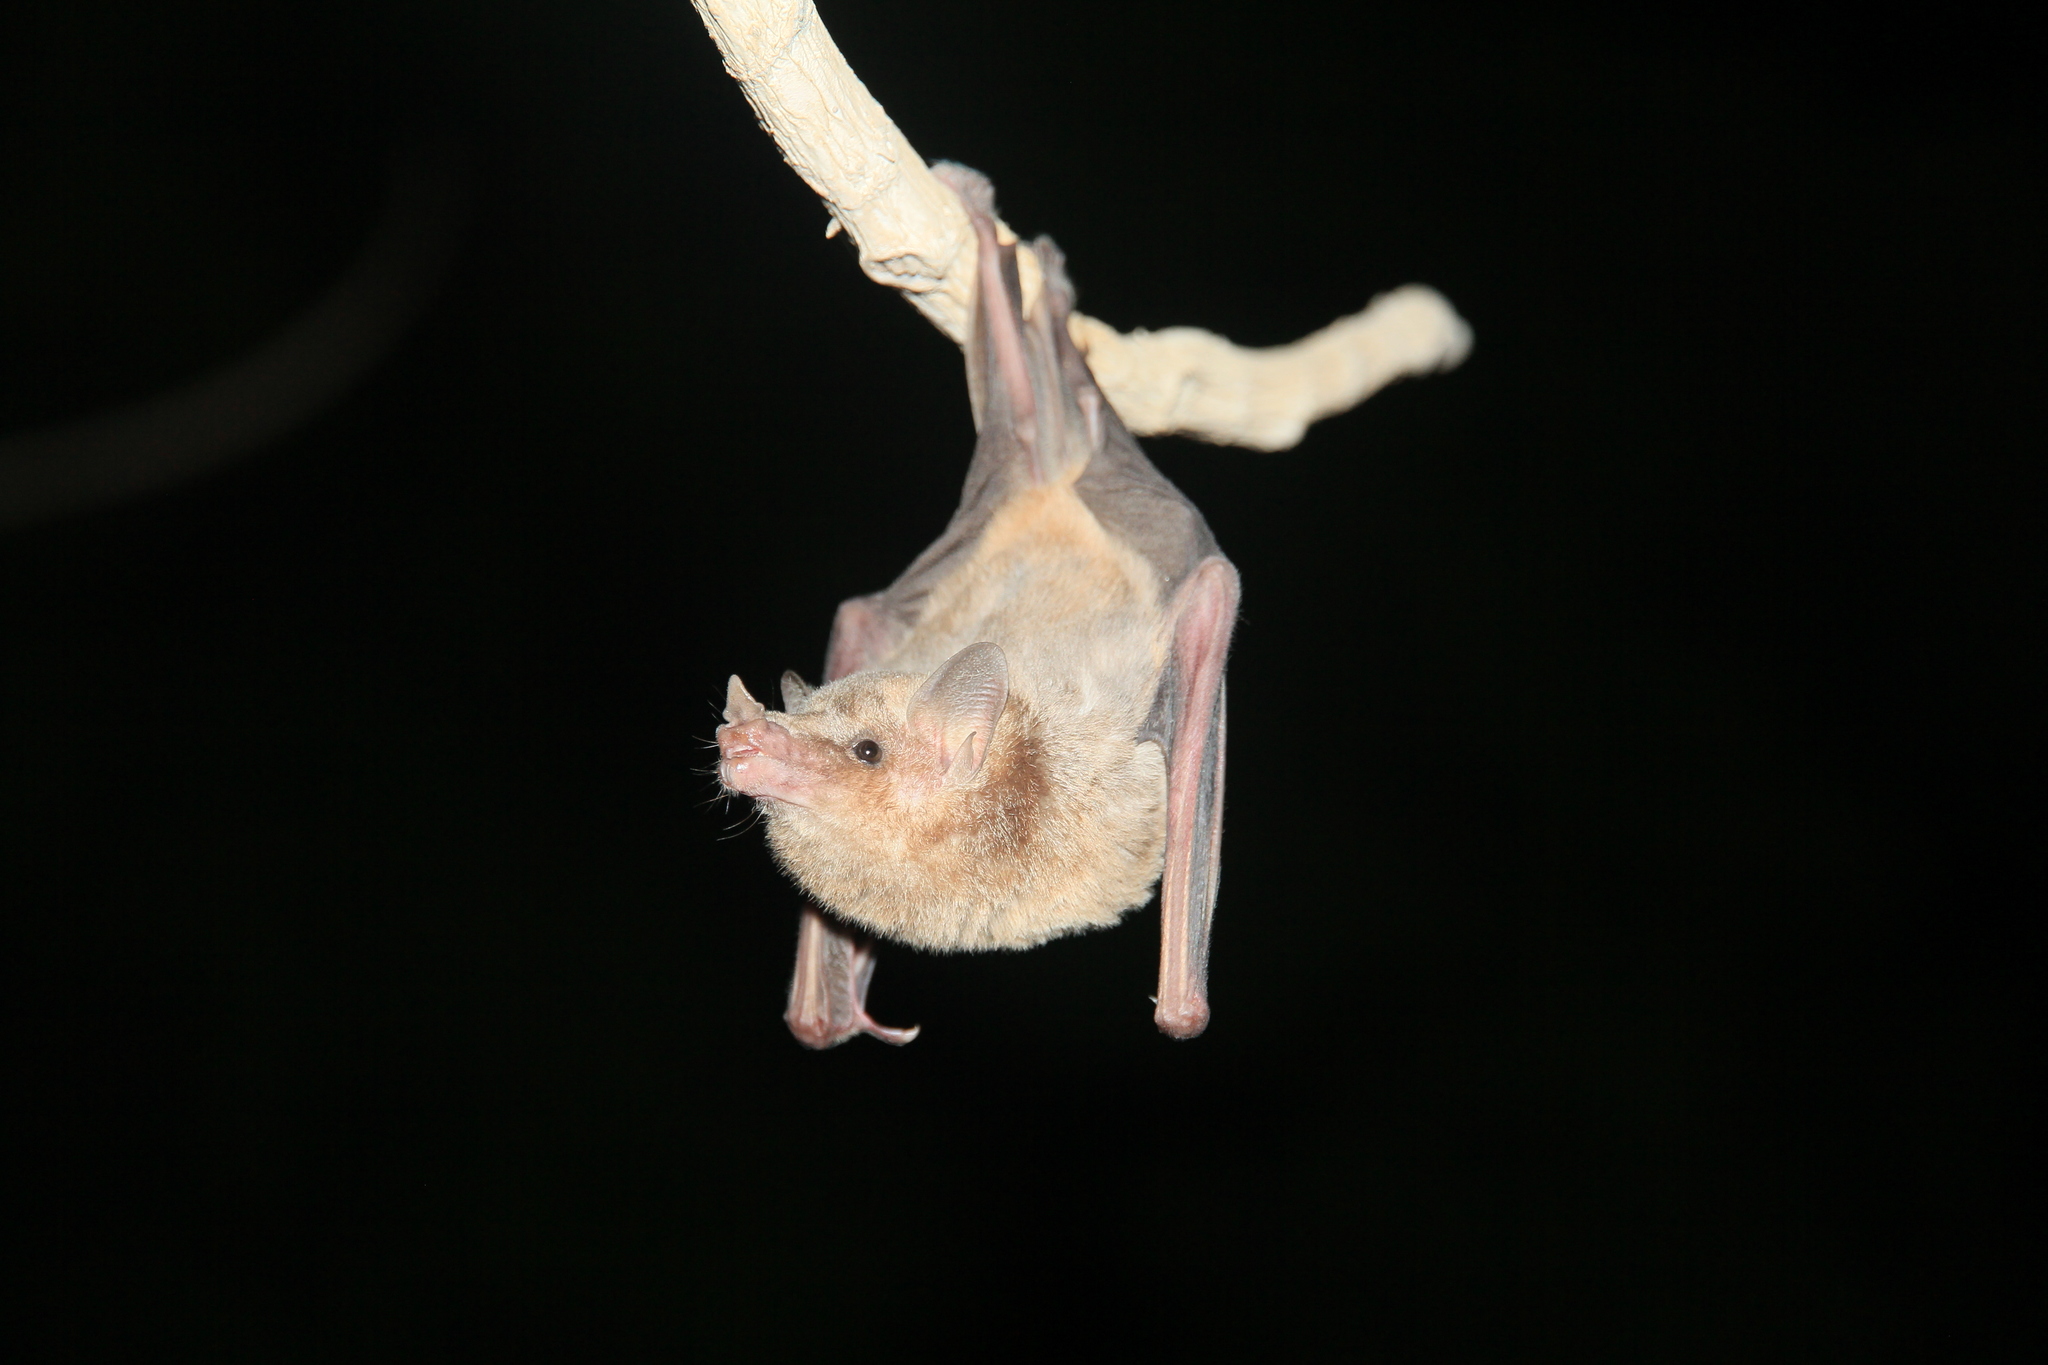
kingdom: Animalia
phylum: Chordata
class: Mammalia
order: Chiroptera
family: Phyllostomidae
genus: Platalina
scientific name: Platalina genovensium
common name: Long-snouted bat
